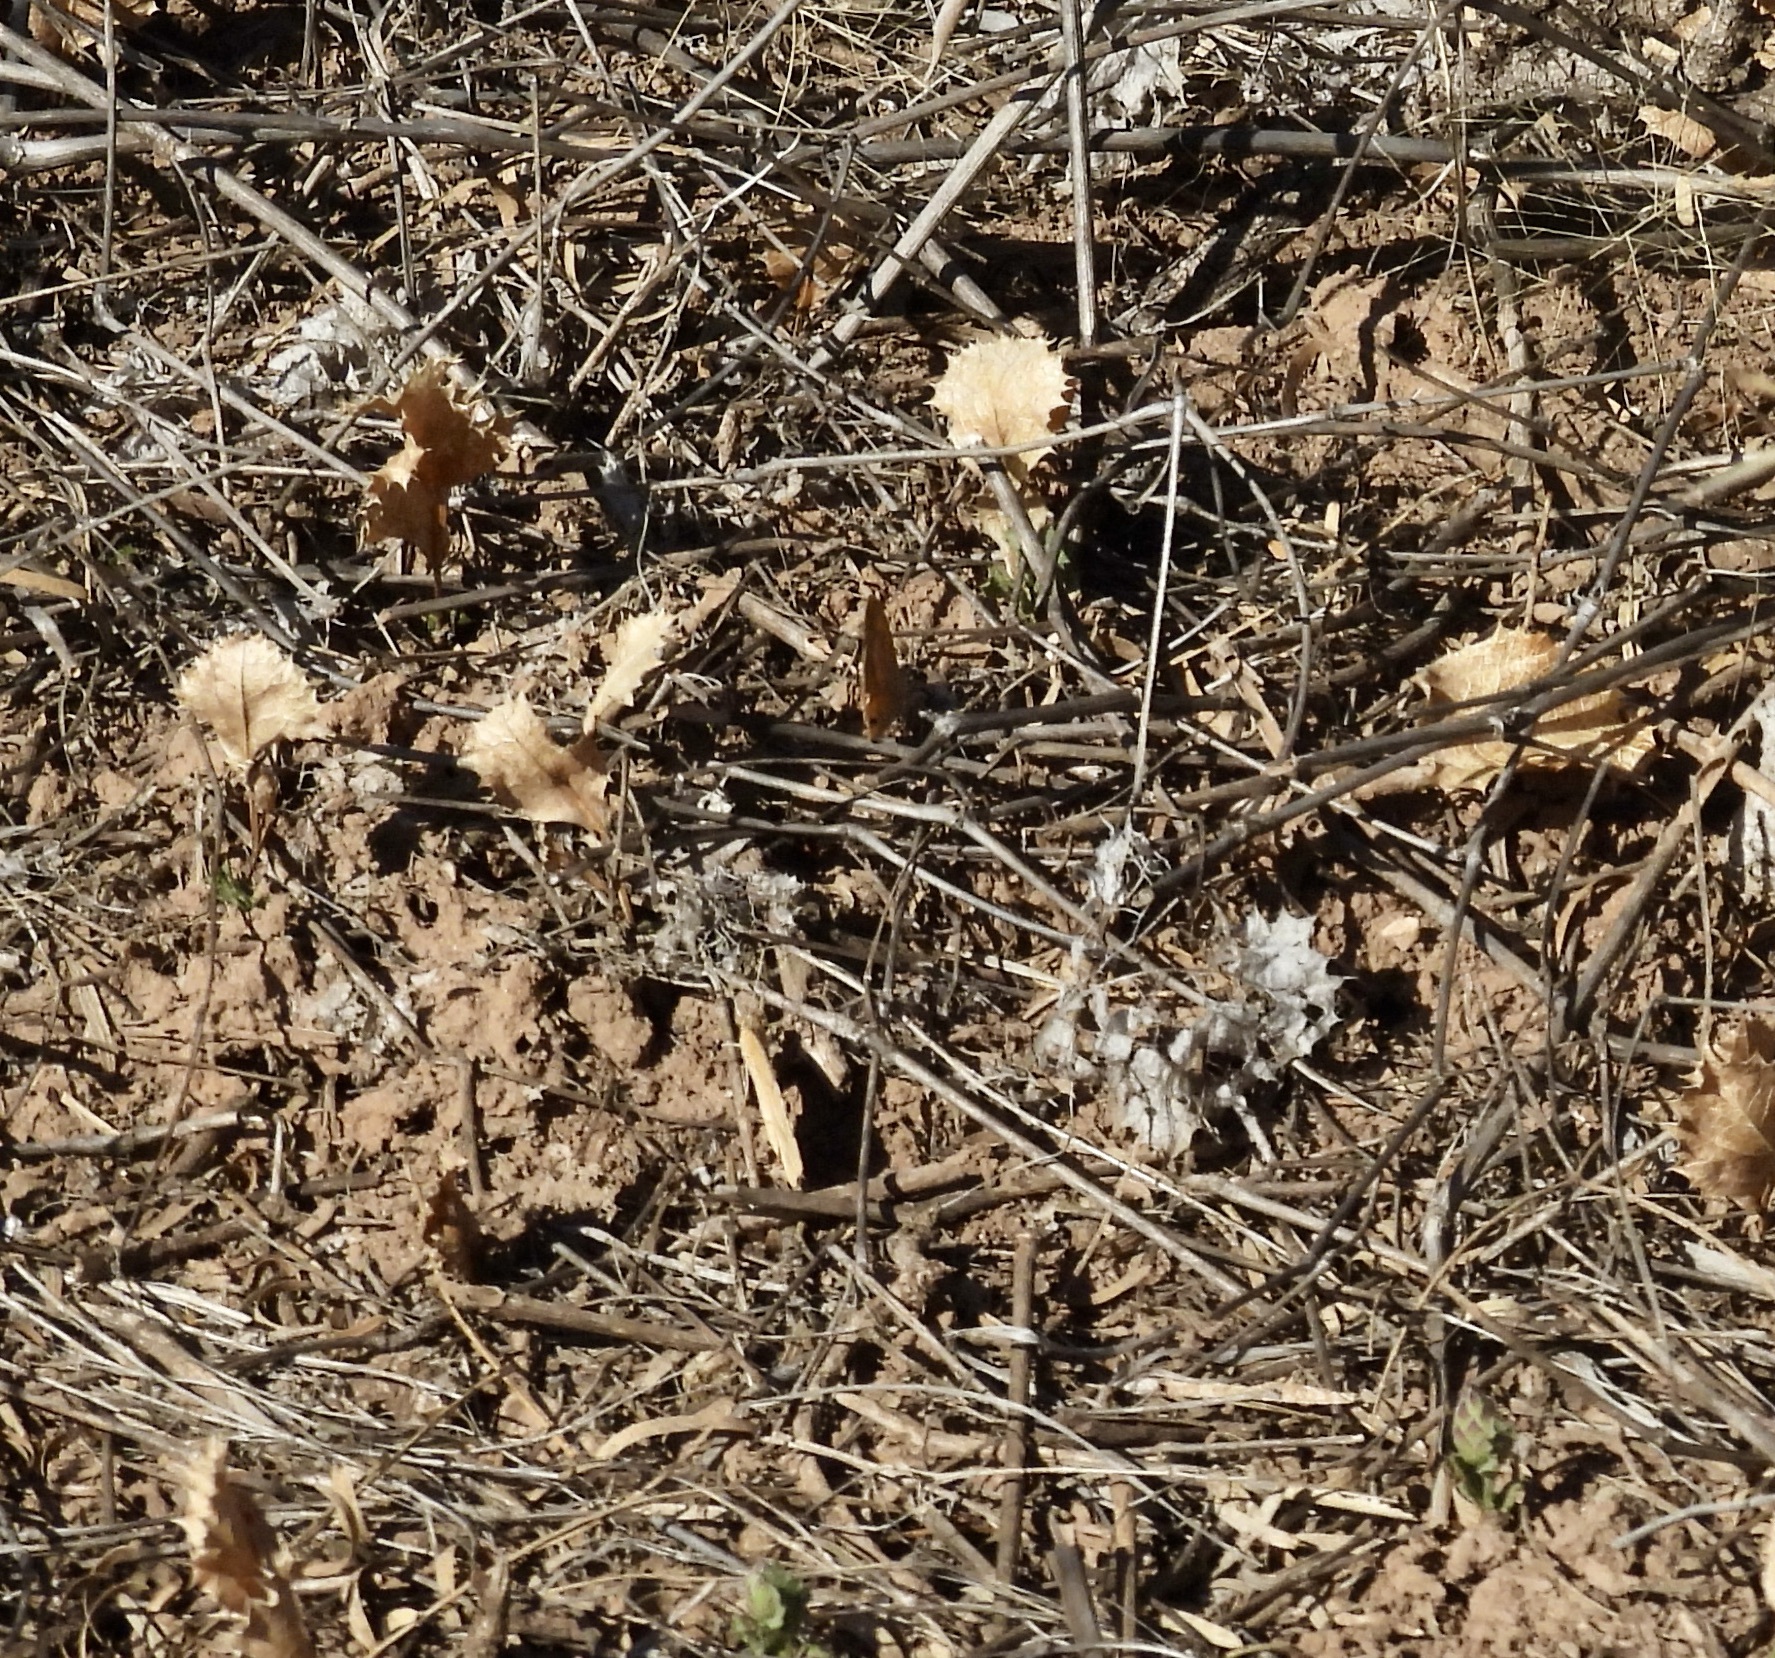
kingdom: Animalia
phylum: Arthropoda
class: Insecta
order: Lepidoptera
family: Pieridae
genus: Abaeis
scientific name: Abaeis nicippe
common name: Sleepy orange
